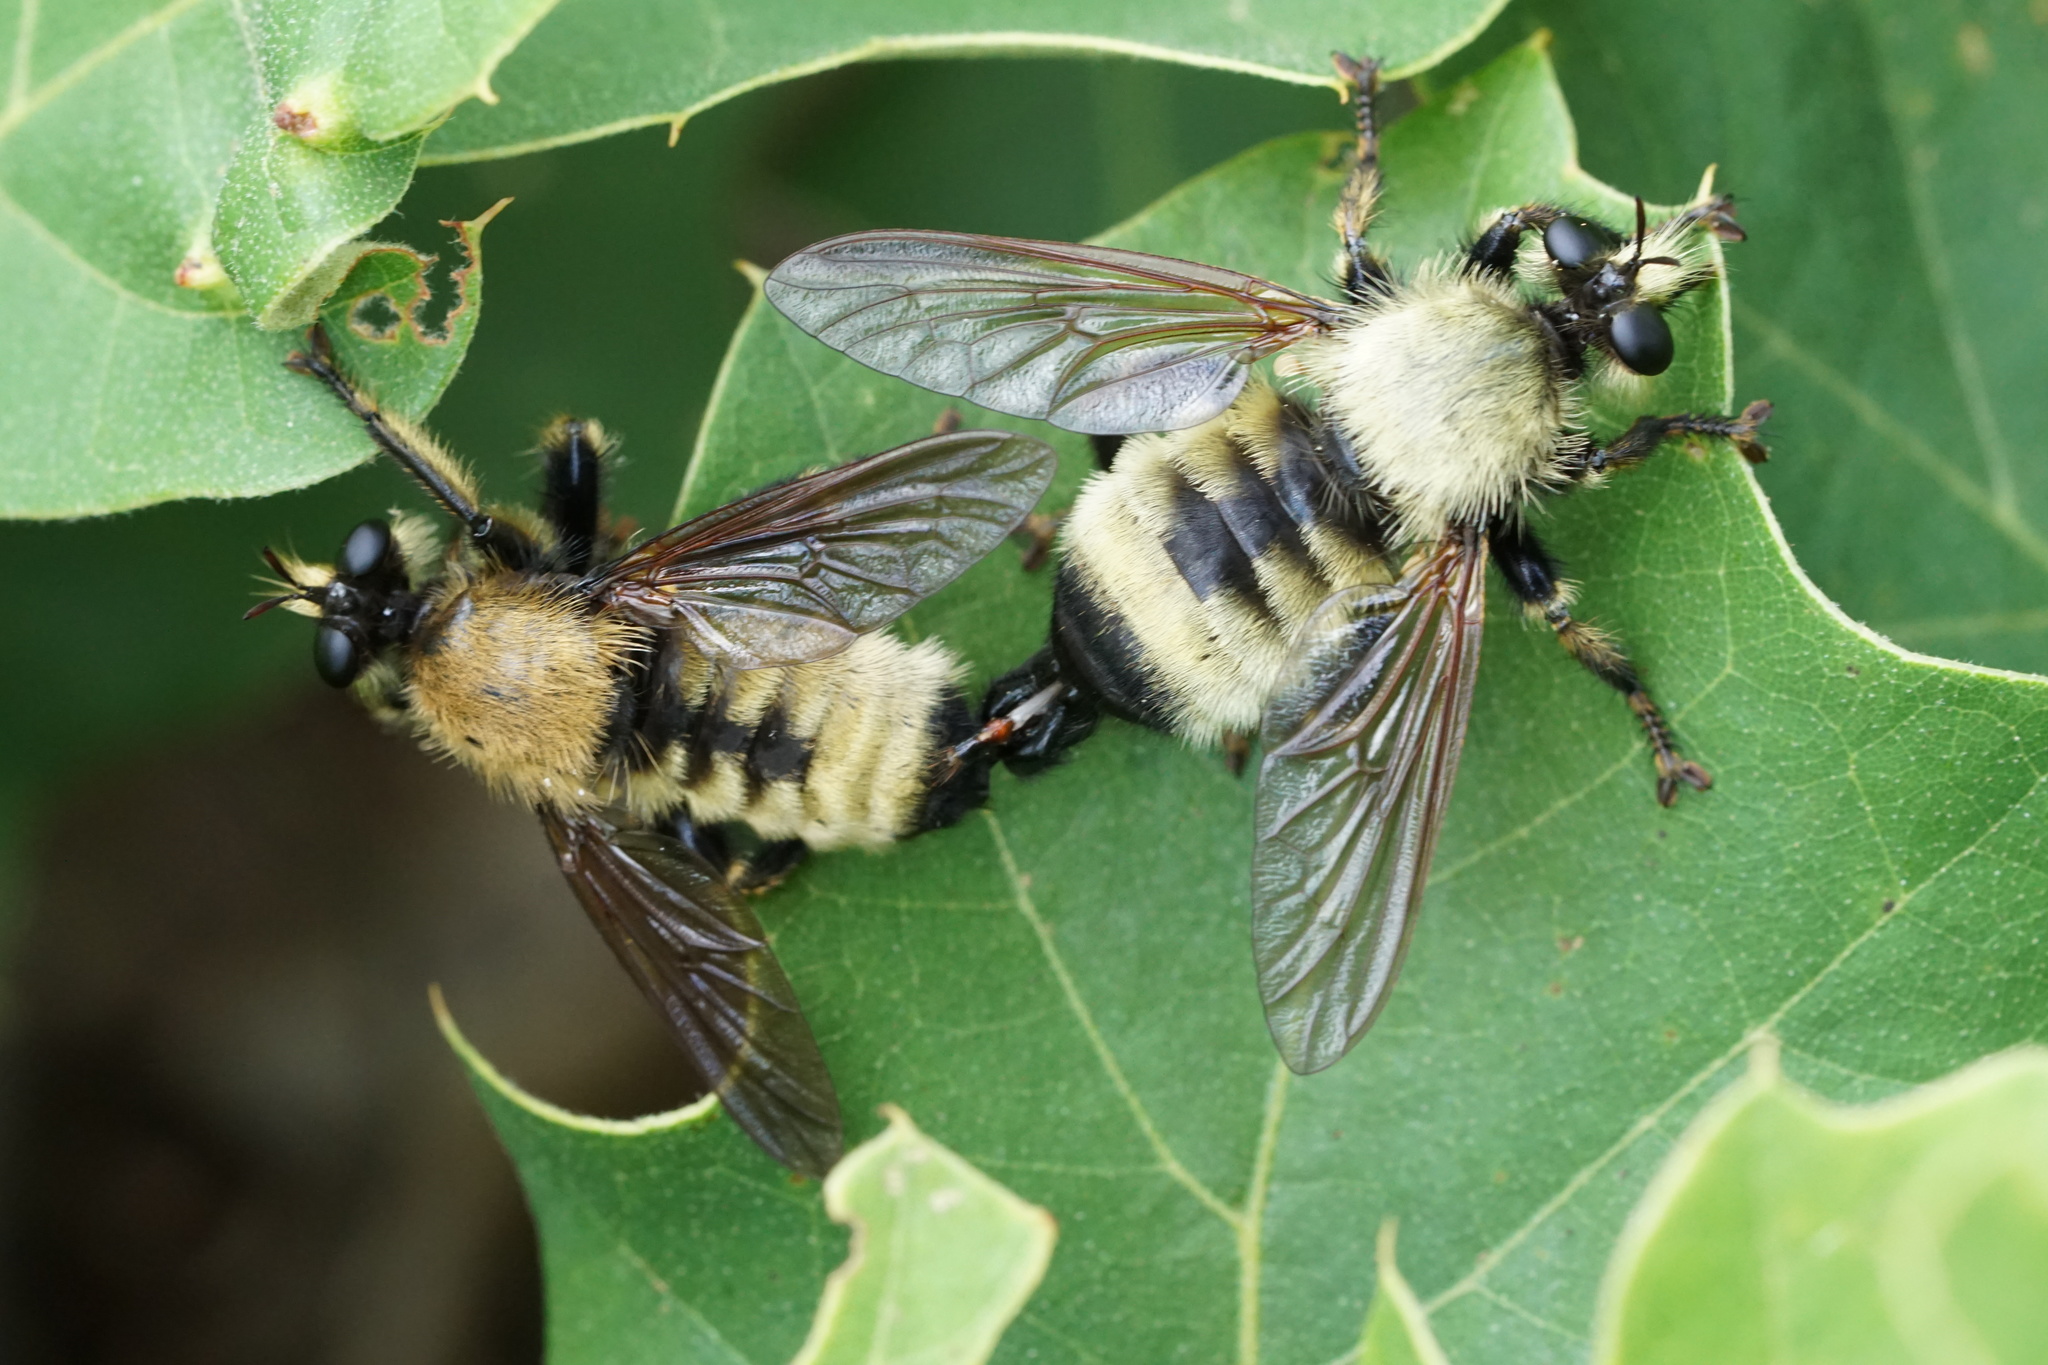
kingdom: Animalia
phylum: Arthropoda
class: Insecta
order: Diptera
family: Asilidae
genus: Laphria
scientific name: Laphria champlainii
